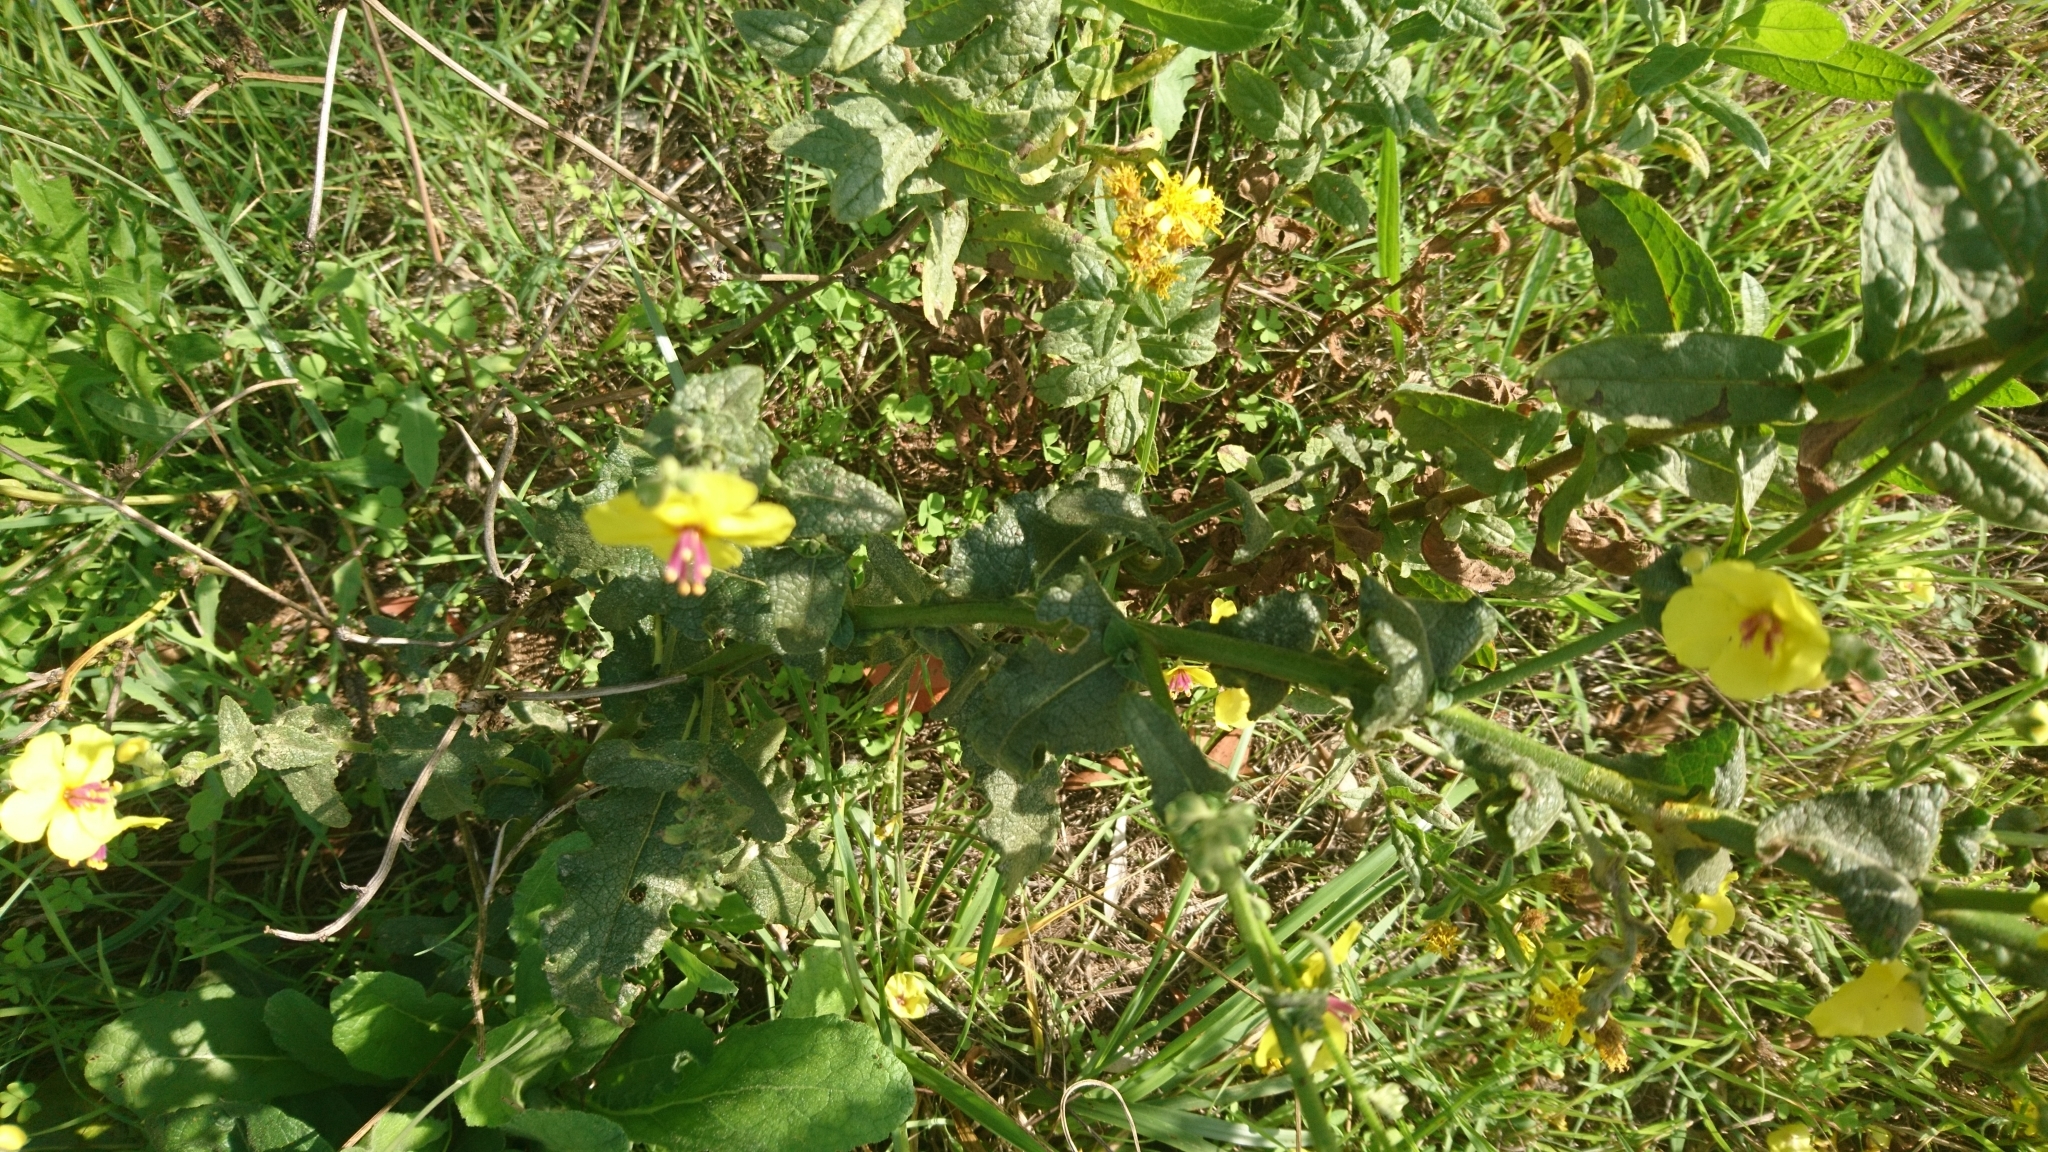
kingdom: Plantae
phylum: Tracheophyta
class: Magnoliopsida
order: Lamiales
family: Scrophulariaceae
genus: Verbascum
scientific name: Verbascum sinuatum
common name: Wavyleaf mullein
